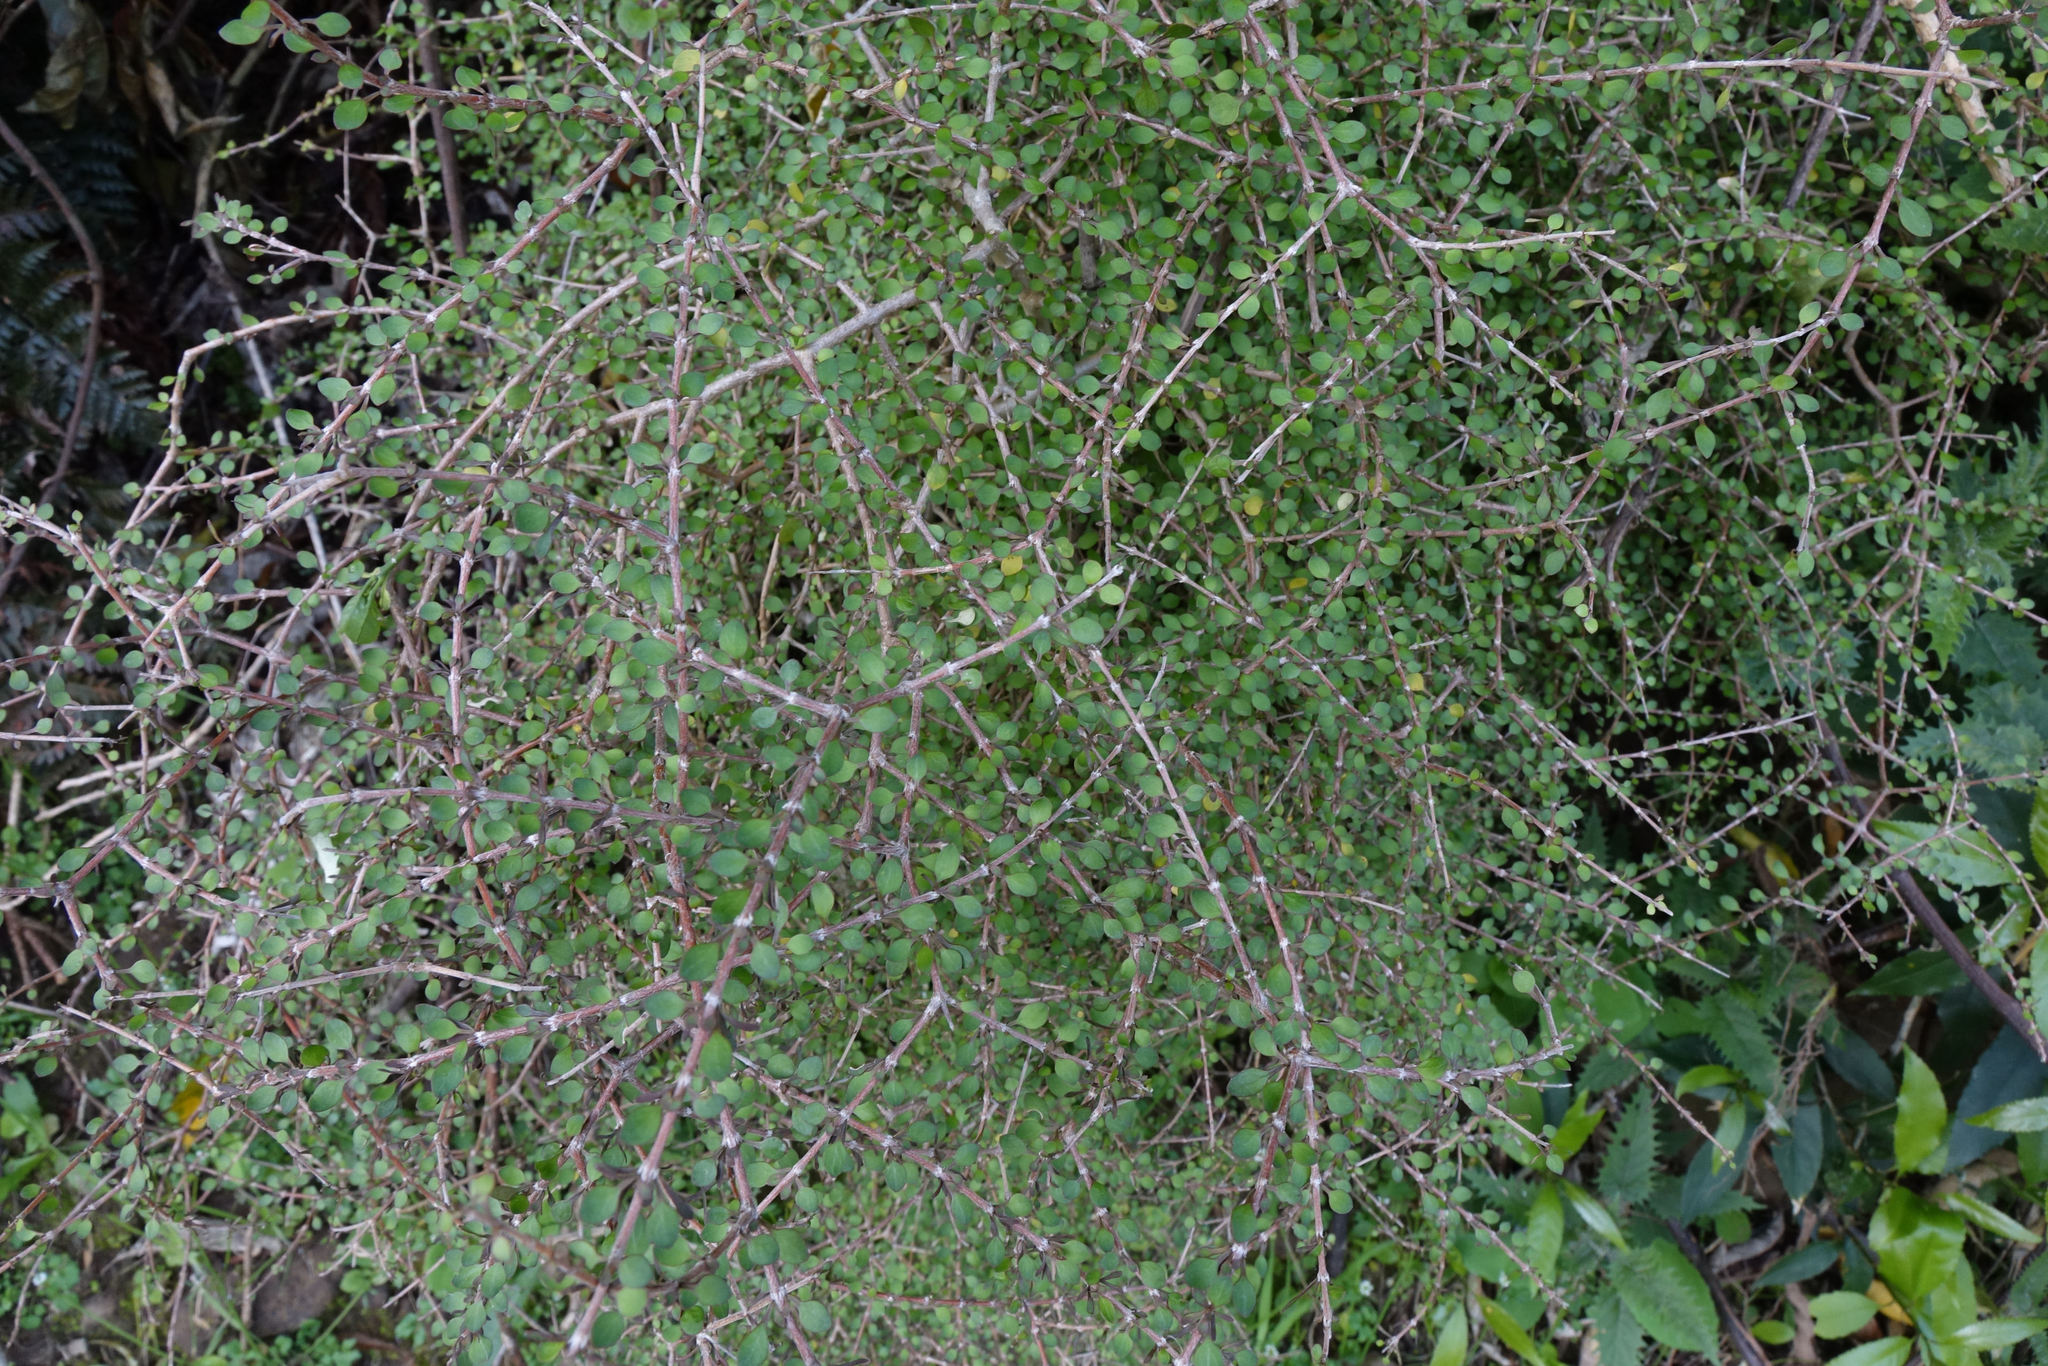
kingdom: Plantae
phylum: Tracheophyta
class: Magnoliopsida
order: Gentianales
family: Rubiaceae
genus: Coprosma
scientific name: Coprosma virescens
